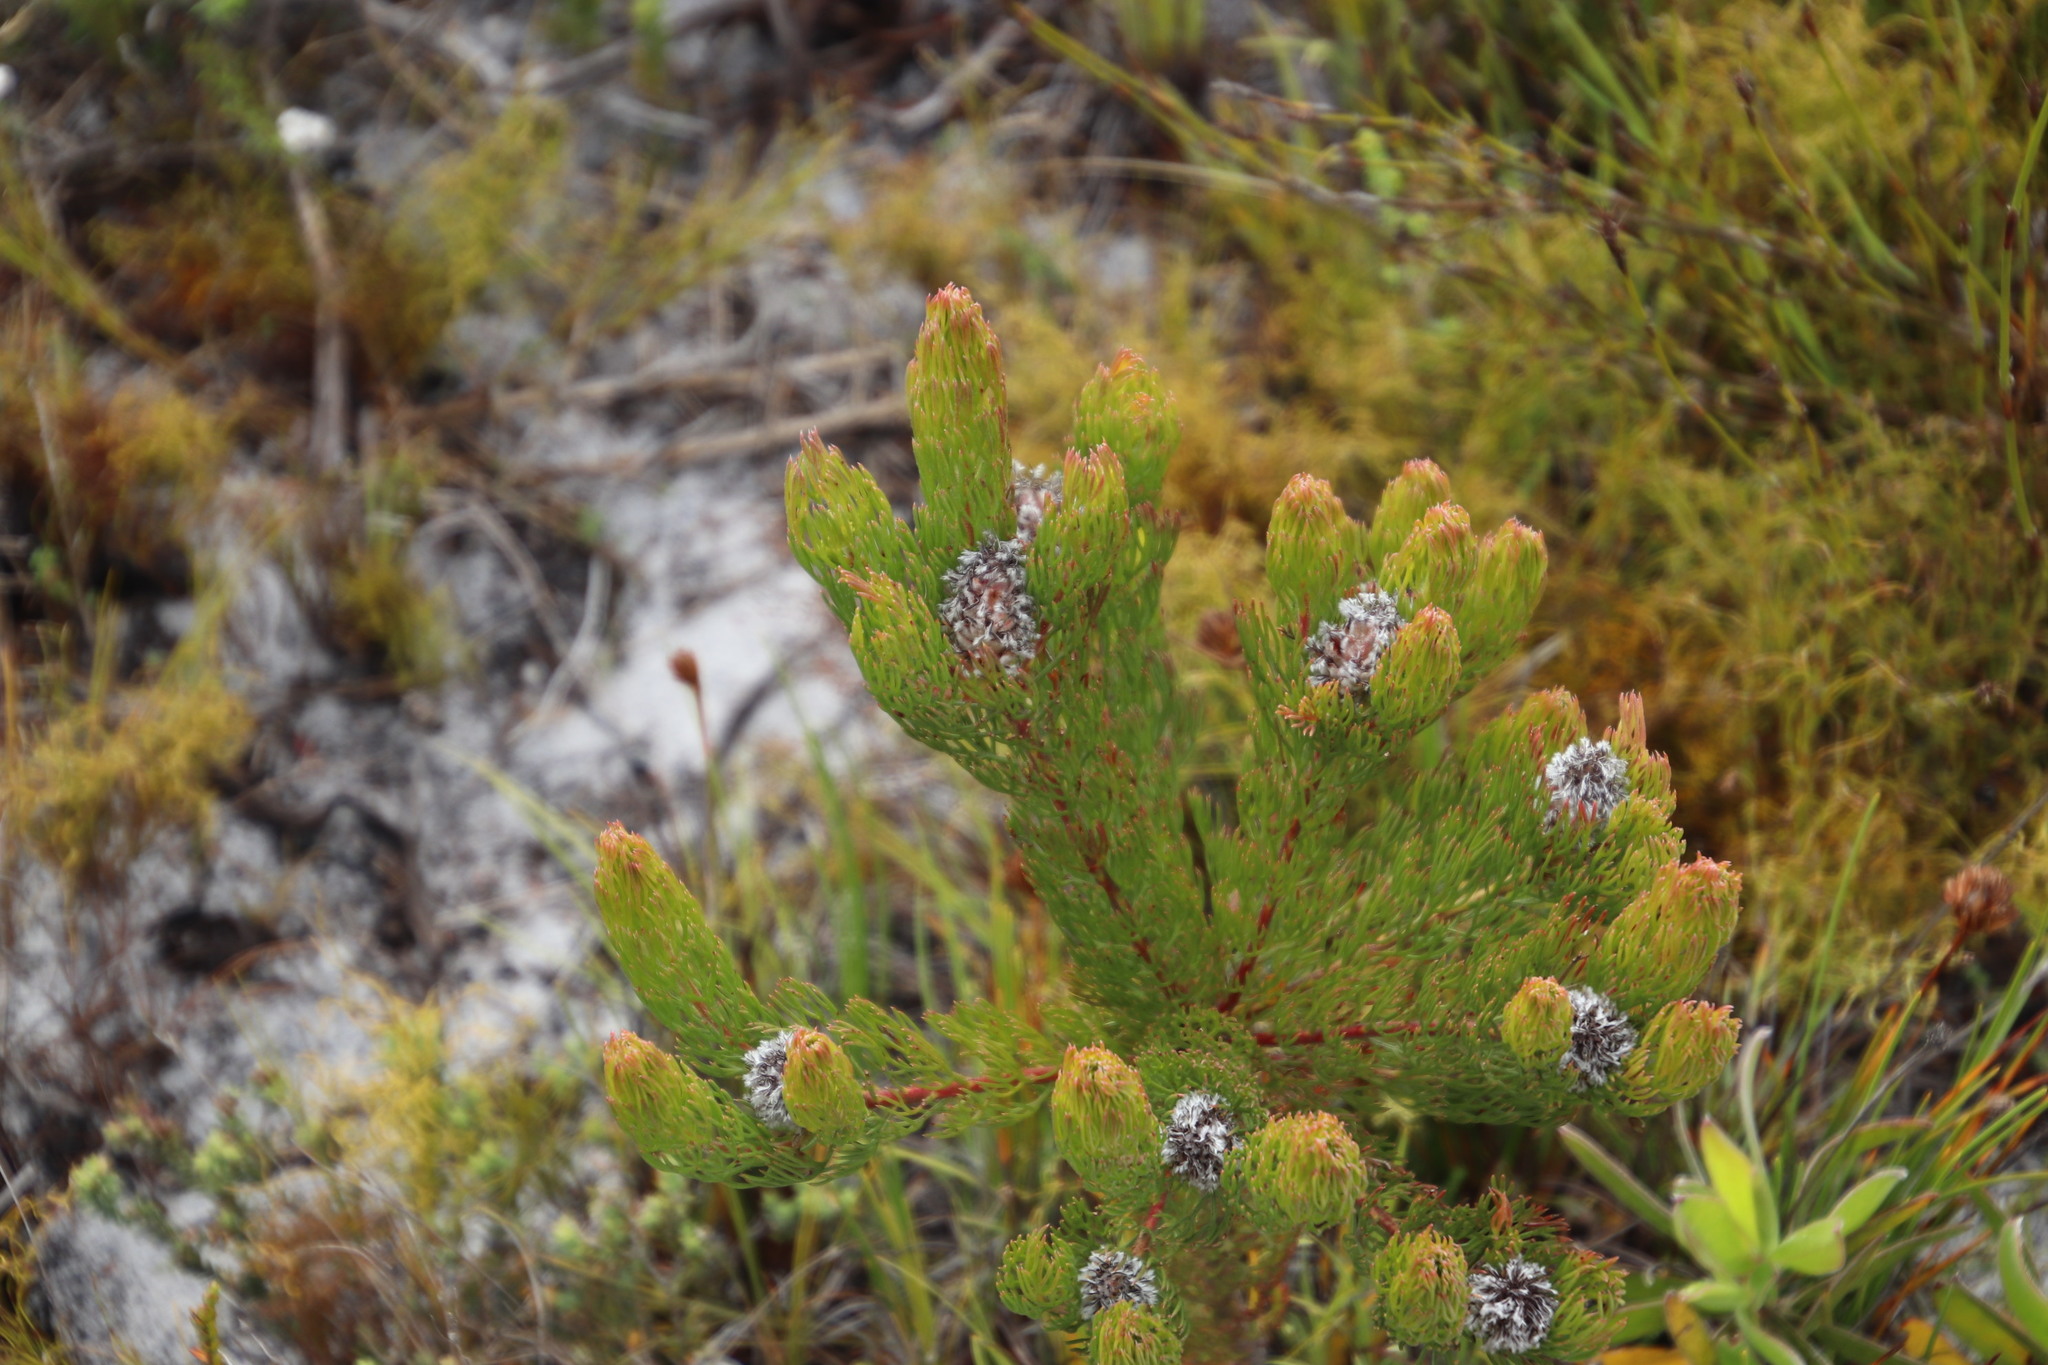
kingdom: Plantae
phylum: Tracheophyta
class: Magnoliopsida
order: Proteales
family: Proteaceae
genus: Serruria
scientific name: Serruria villosa
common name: Golden spiderhead
